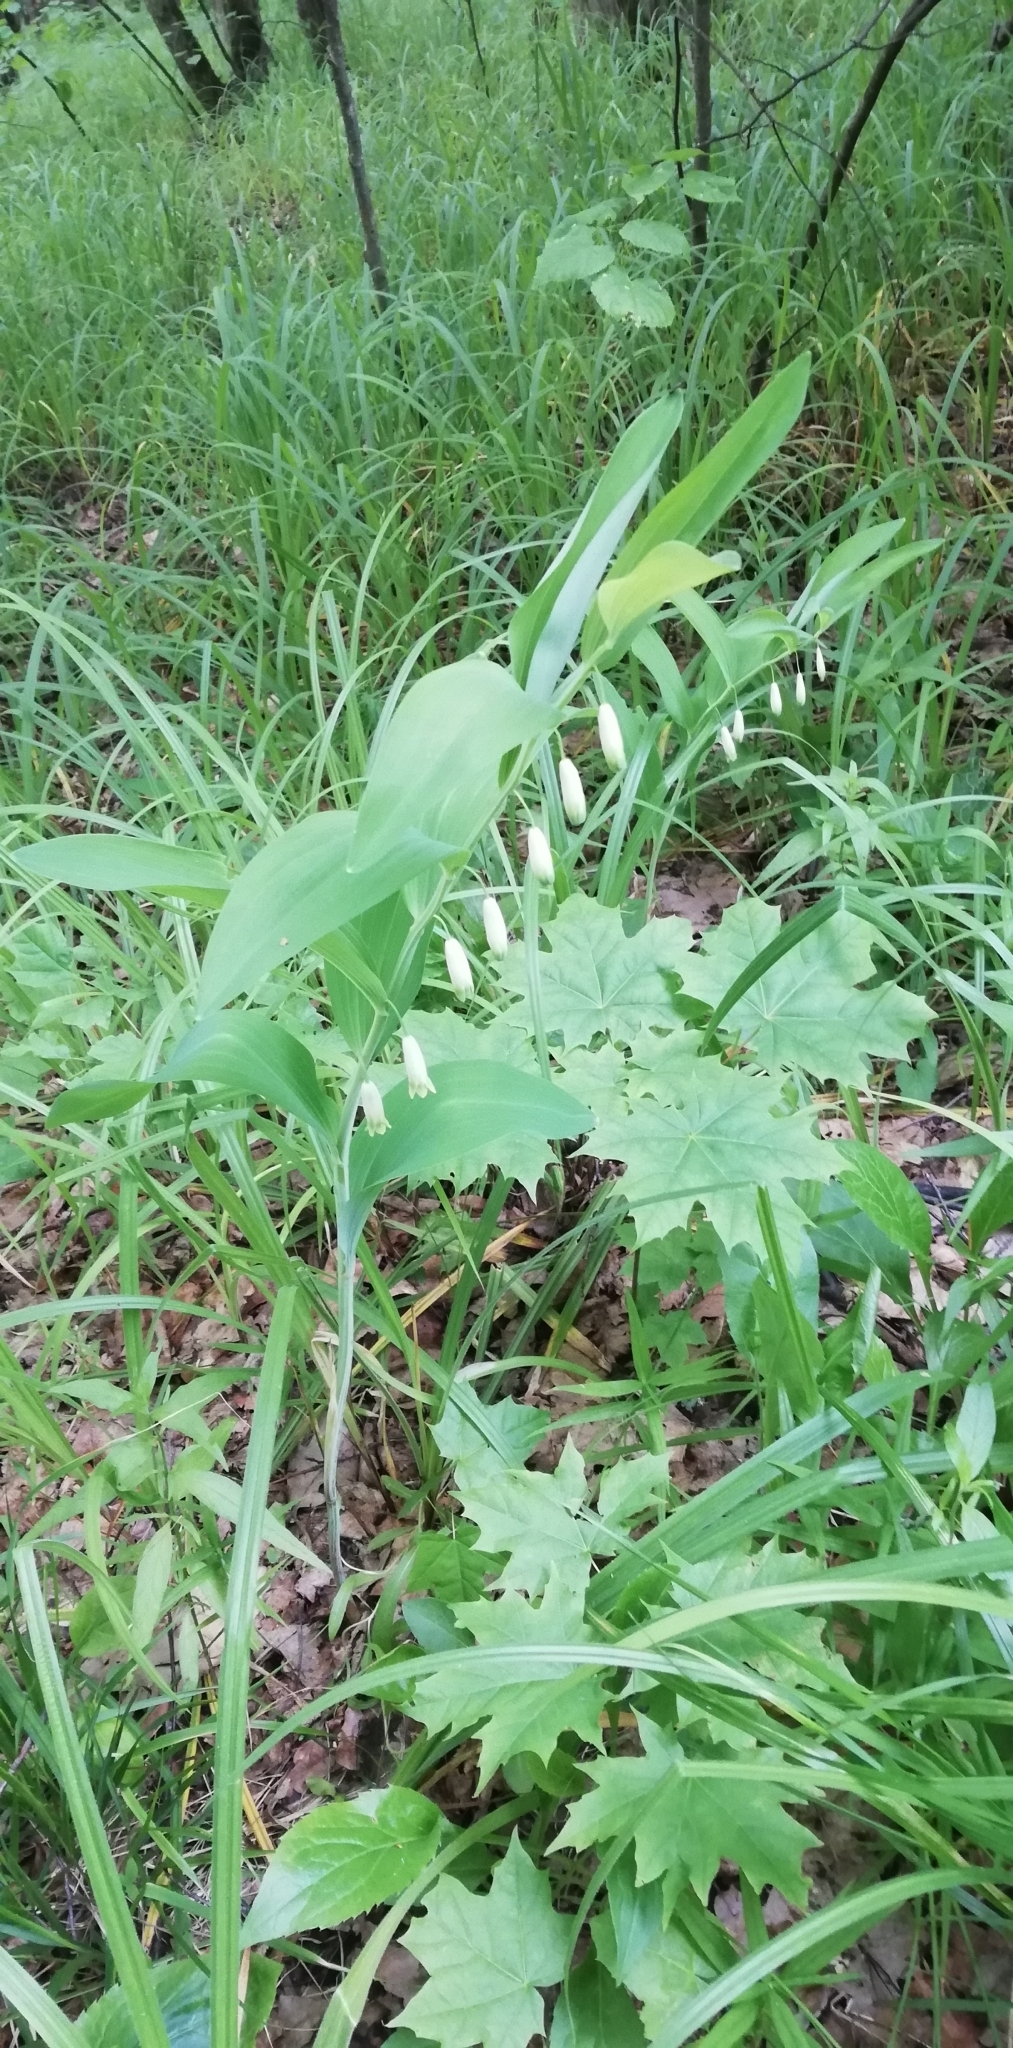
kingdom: Plantae
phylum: Tracheophyta
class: Liliopsida
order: Asparagales
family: Asparagaceae
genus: Polygonatum
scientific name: Polygonatum odoratum
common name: Angular solomon's-seal
